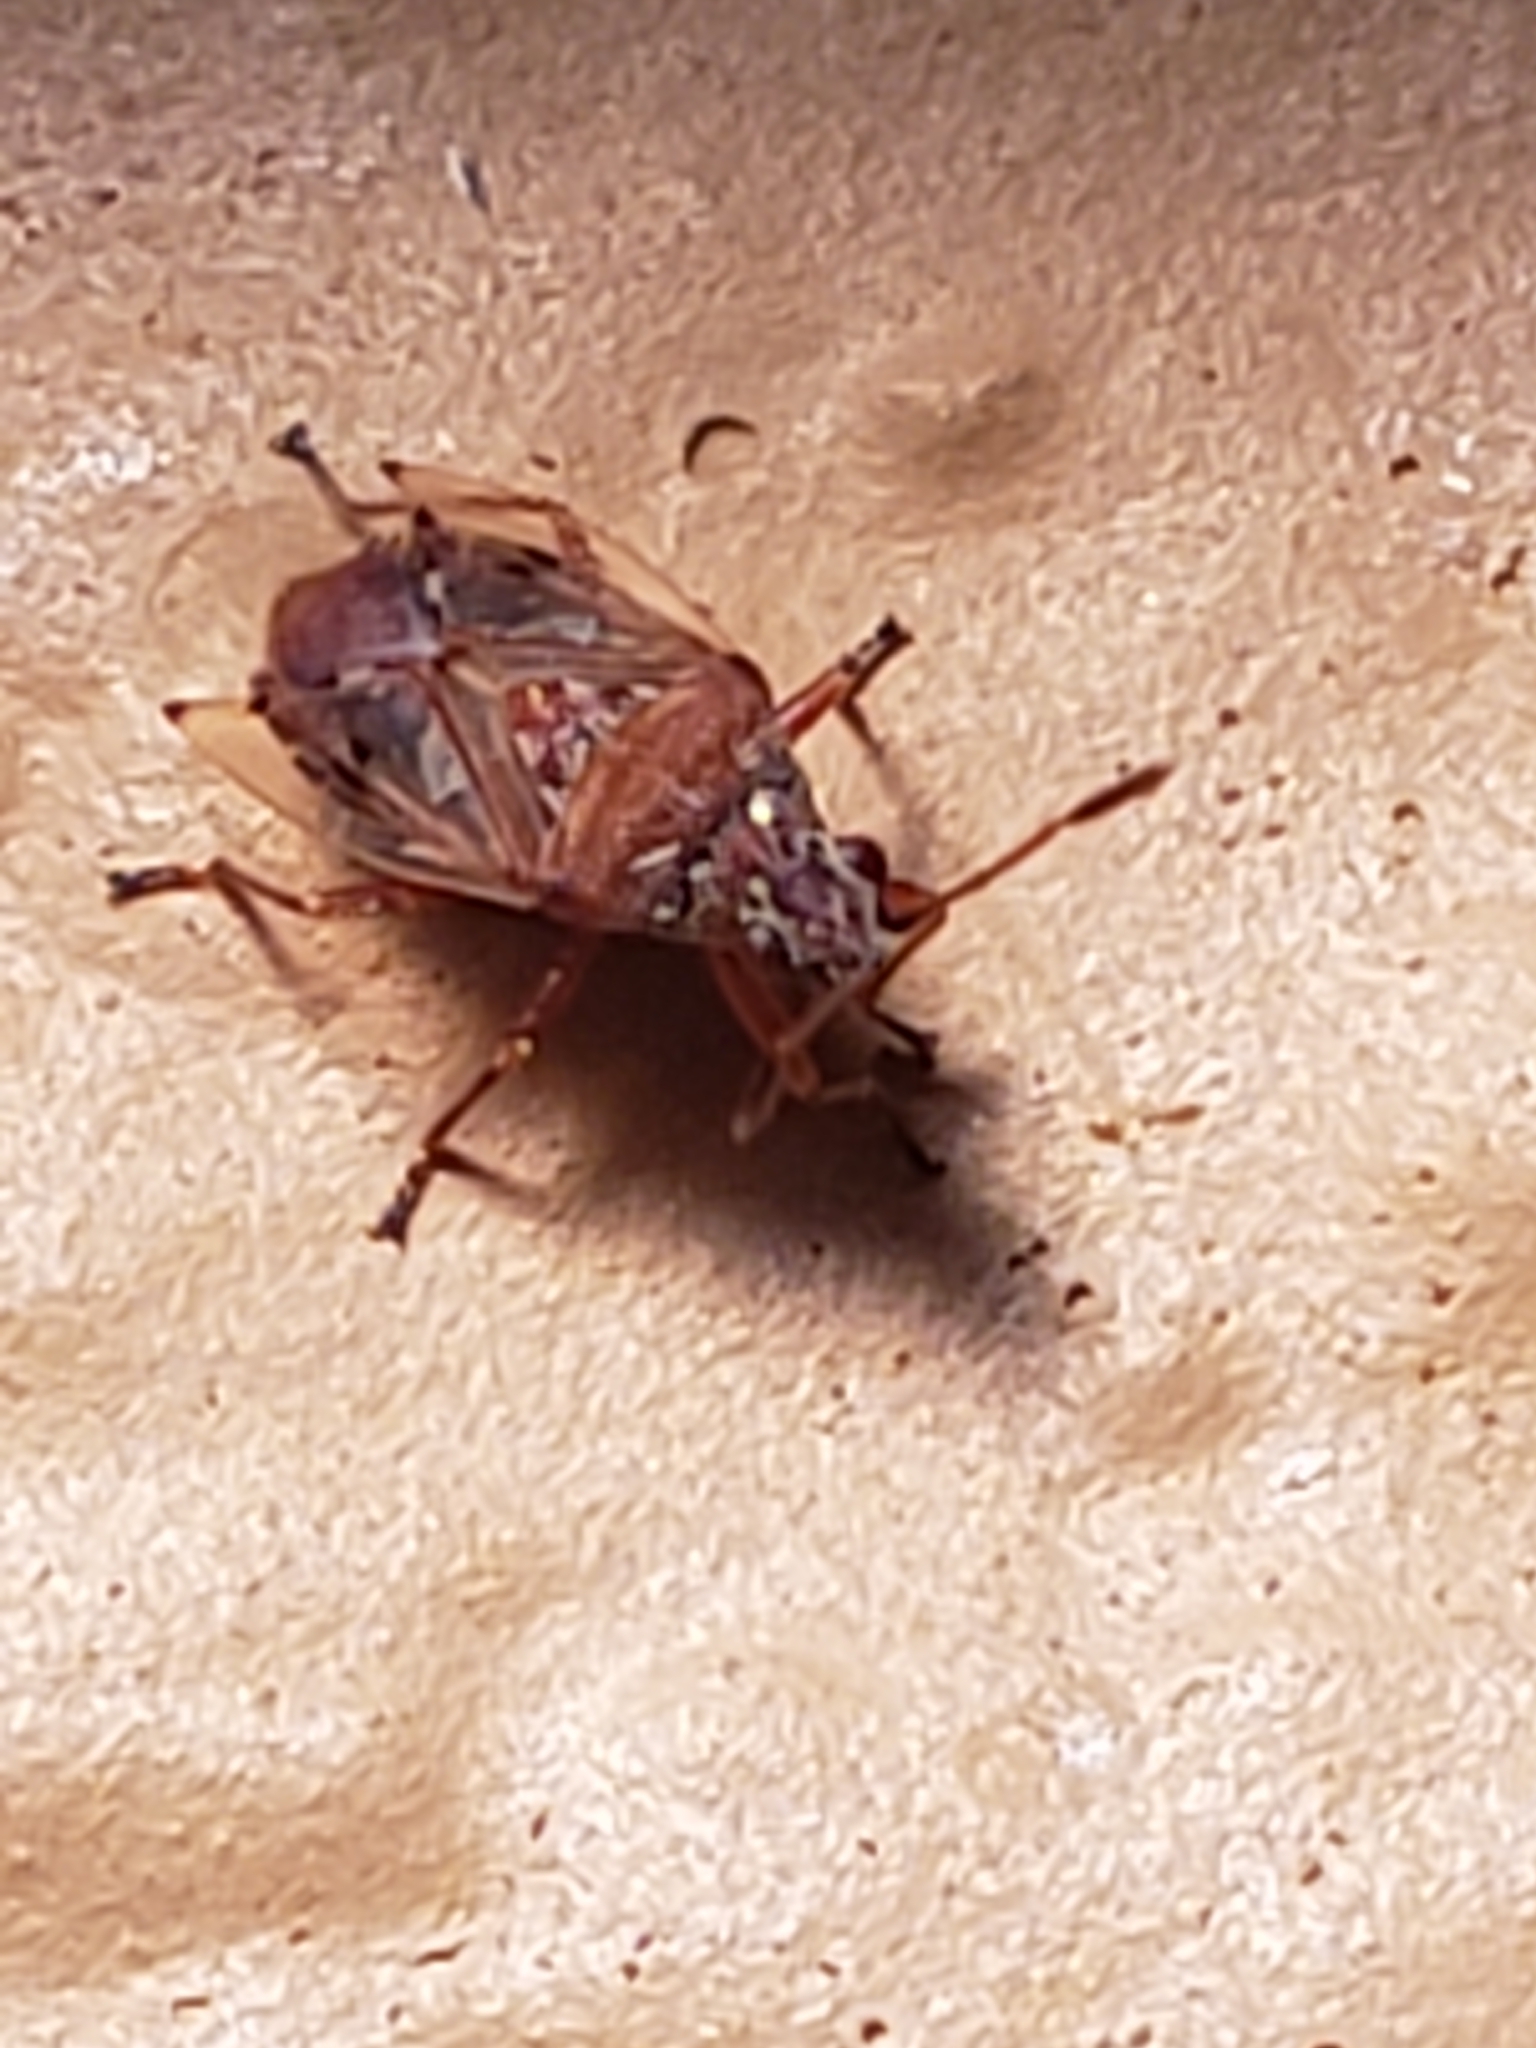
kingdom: Animalia
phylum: Arthropoda
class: Insecta
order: Hemiptera
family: Lygaeidae
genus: Kleidocerys
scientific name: Kleidocerys resedae
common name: Birch catkin bug
